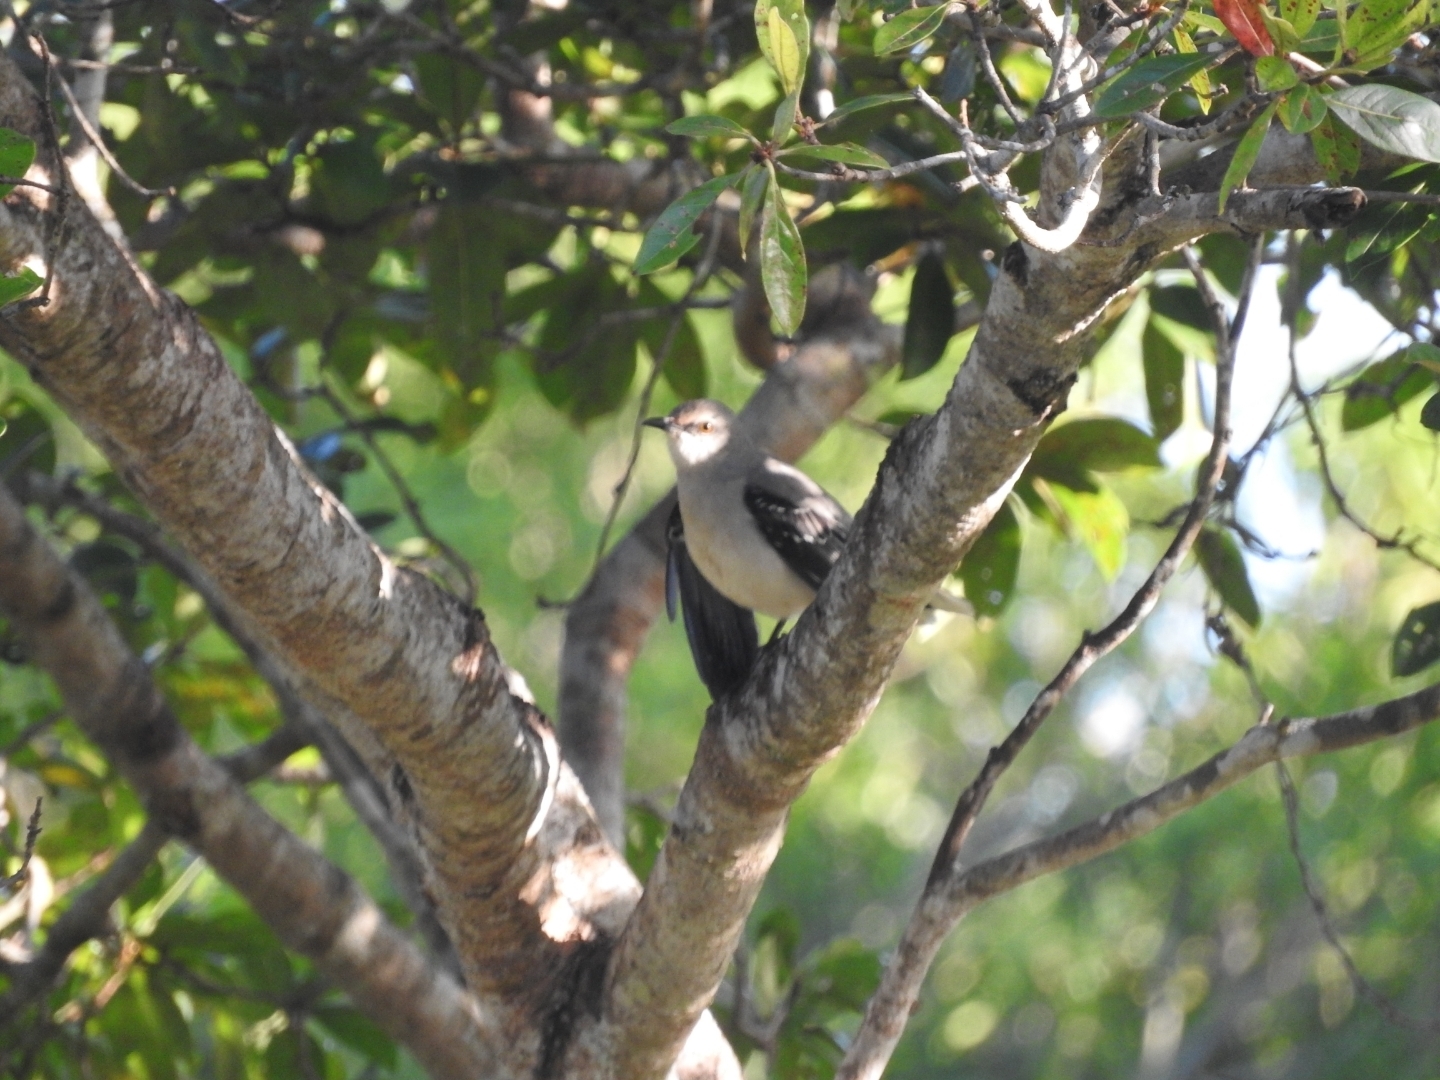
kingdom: Animalia
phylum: Chordata
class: Aves
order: Passeriformes
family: Mimidae
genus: Mimus
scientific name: Mimus gilvus
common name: Tropical mockingbird
